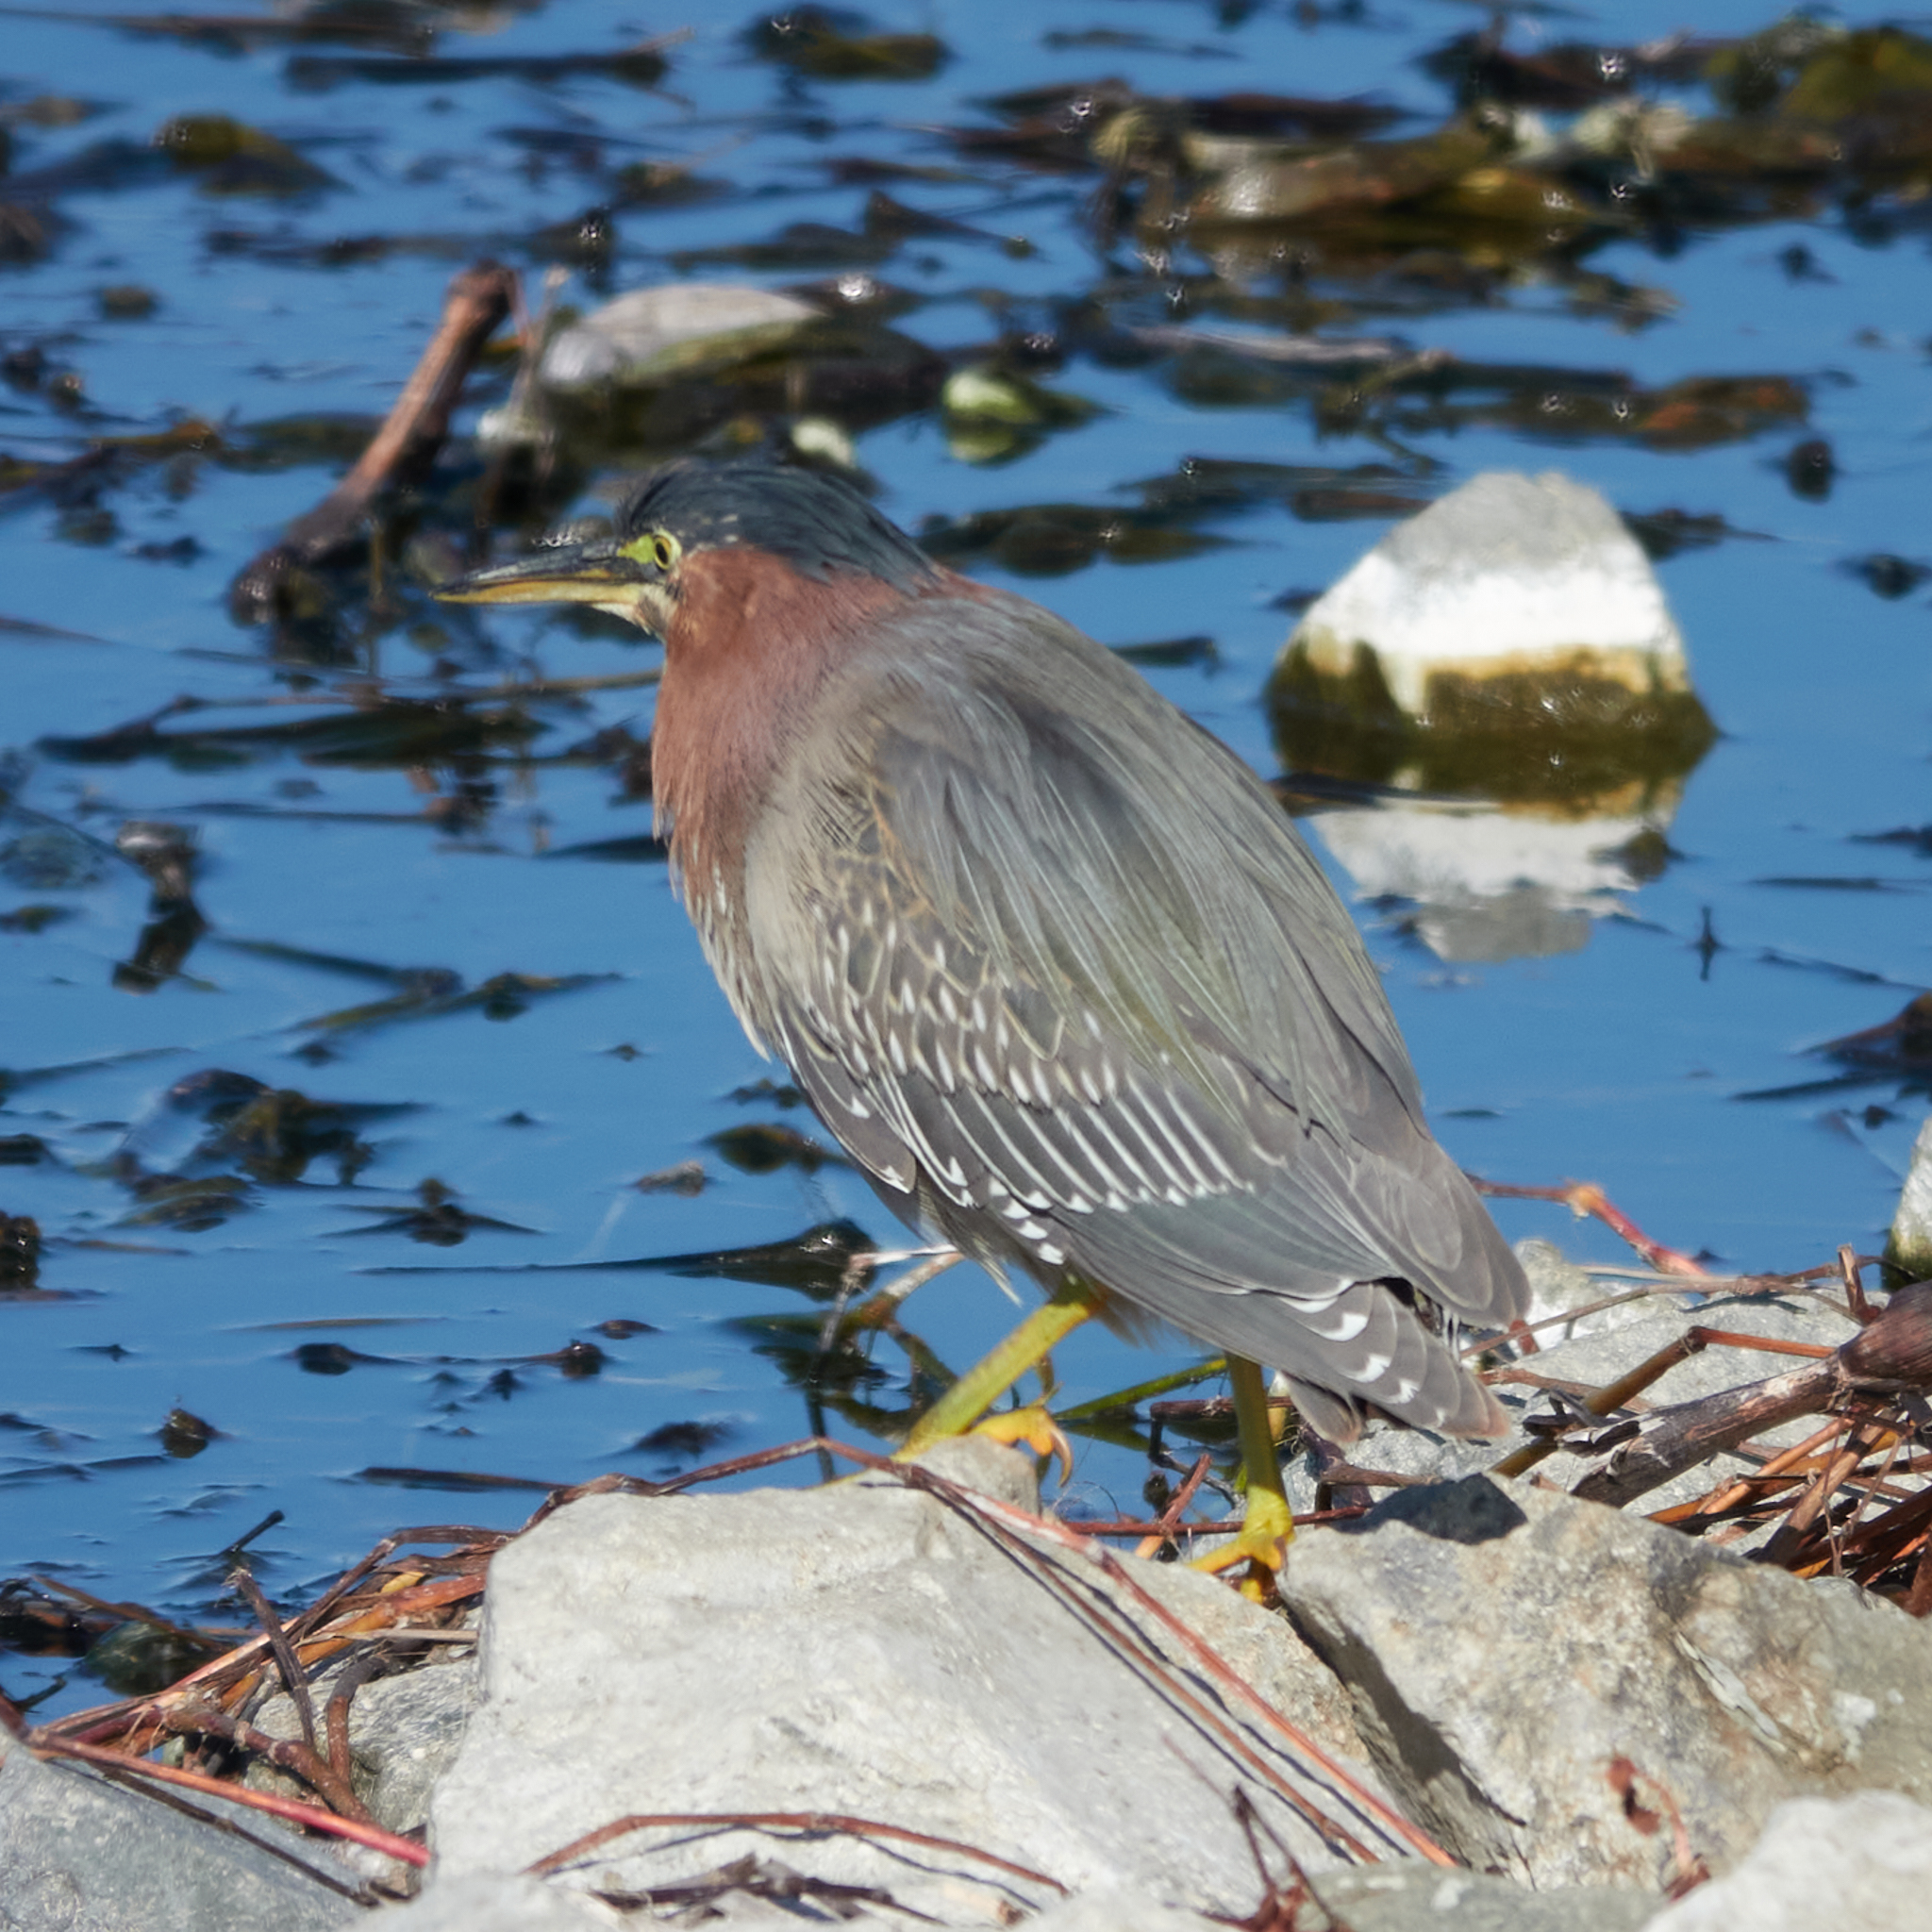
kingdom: Animalia
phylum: Chordata
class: Aves
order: Pelecaniformes
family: Ardeidae
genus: Butorides
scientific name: Butorides virescens
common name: Green heron
